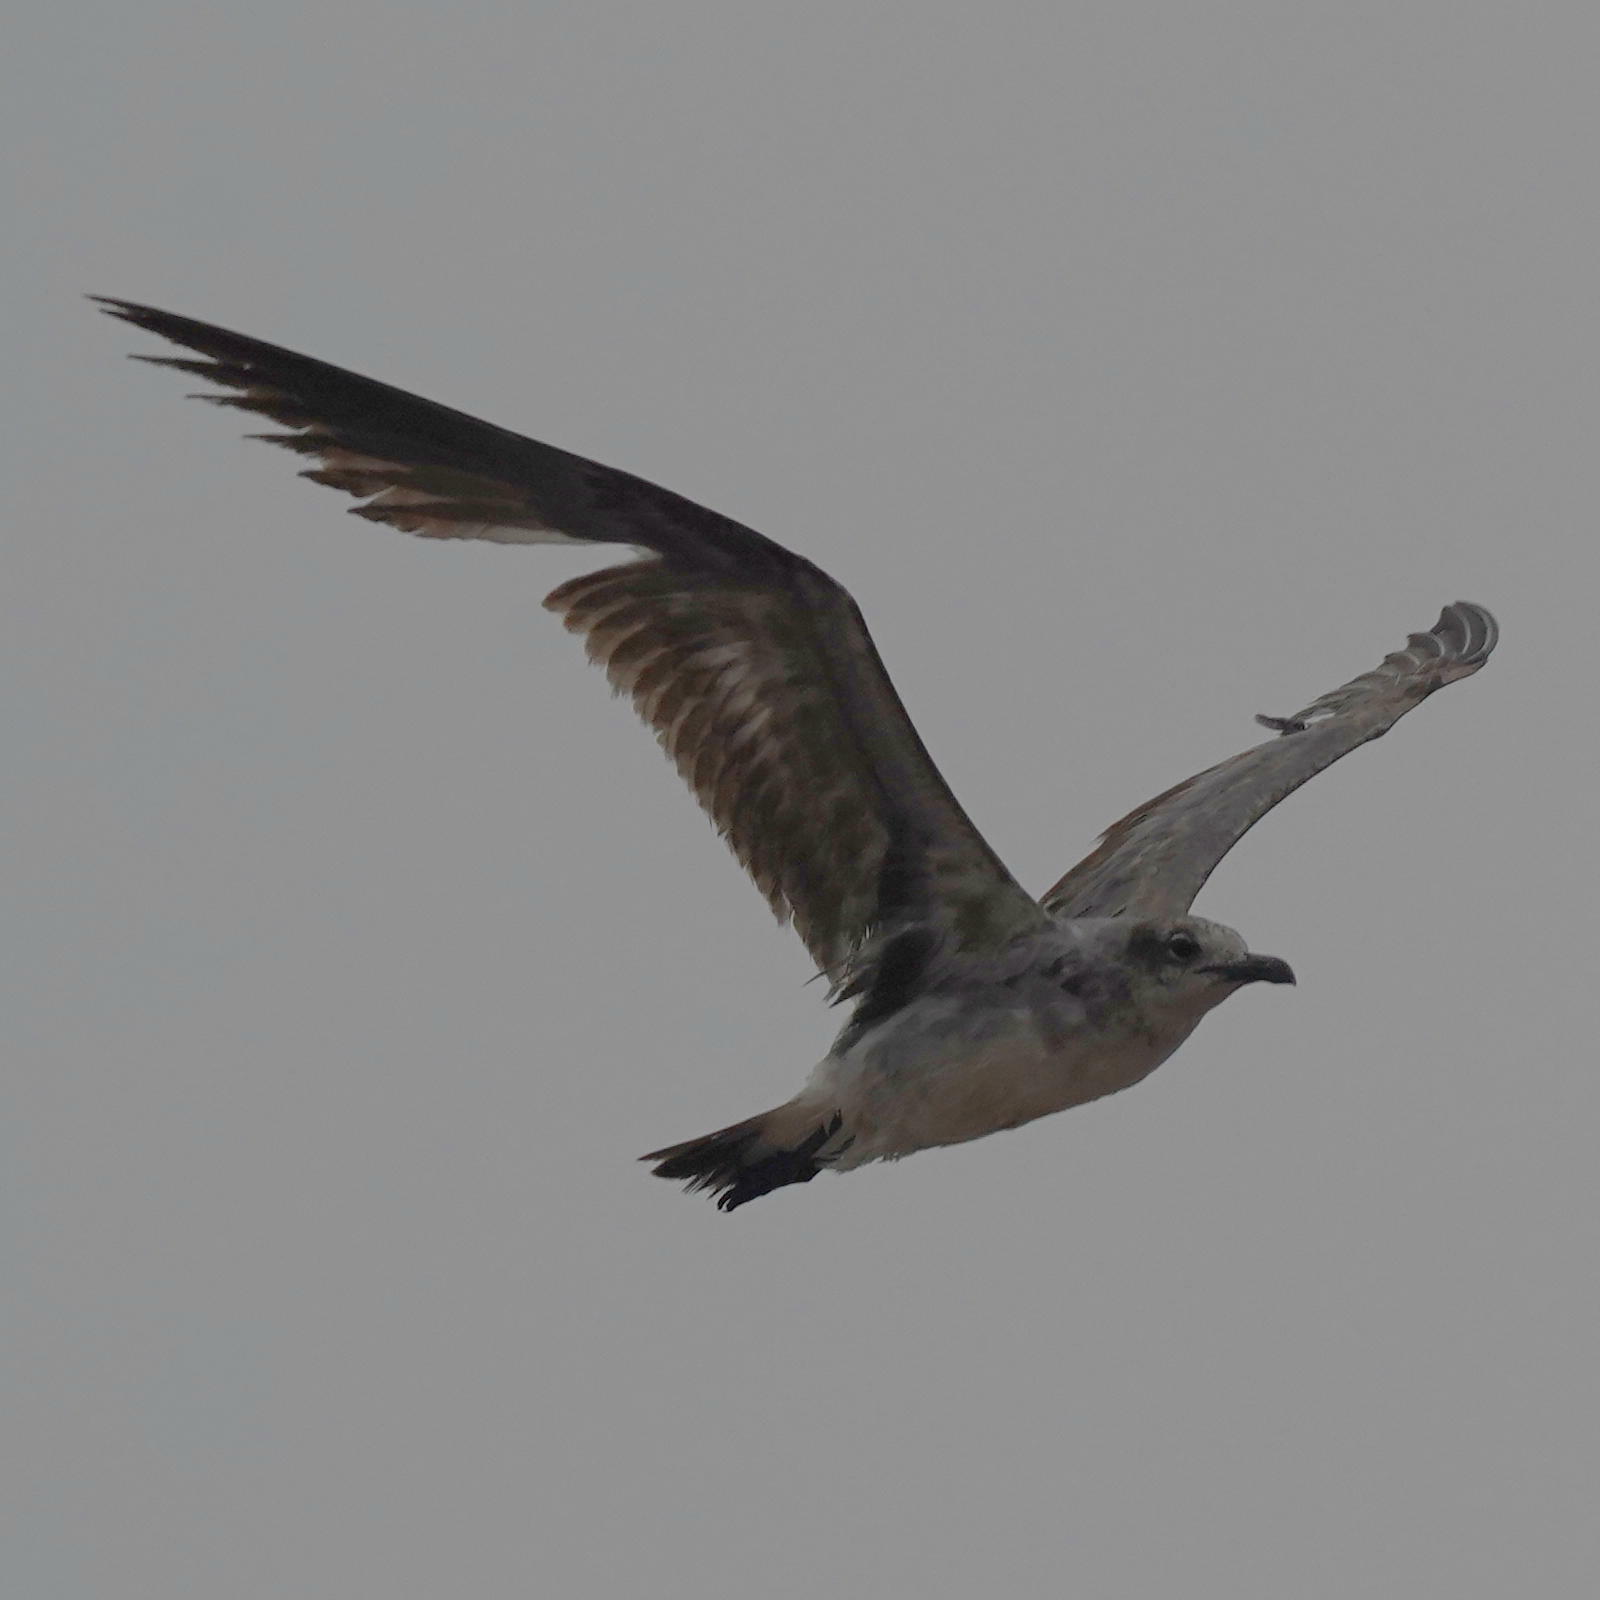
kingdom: Animalia
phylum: Chordata
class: Aves
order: Charadriiformes
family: Laridae
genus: Leucophaeus
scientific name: Leucophaeus atricilla
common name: Laughing gull
